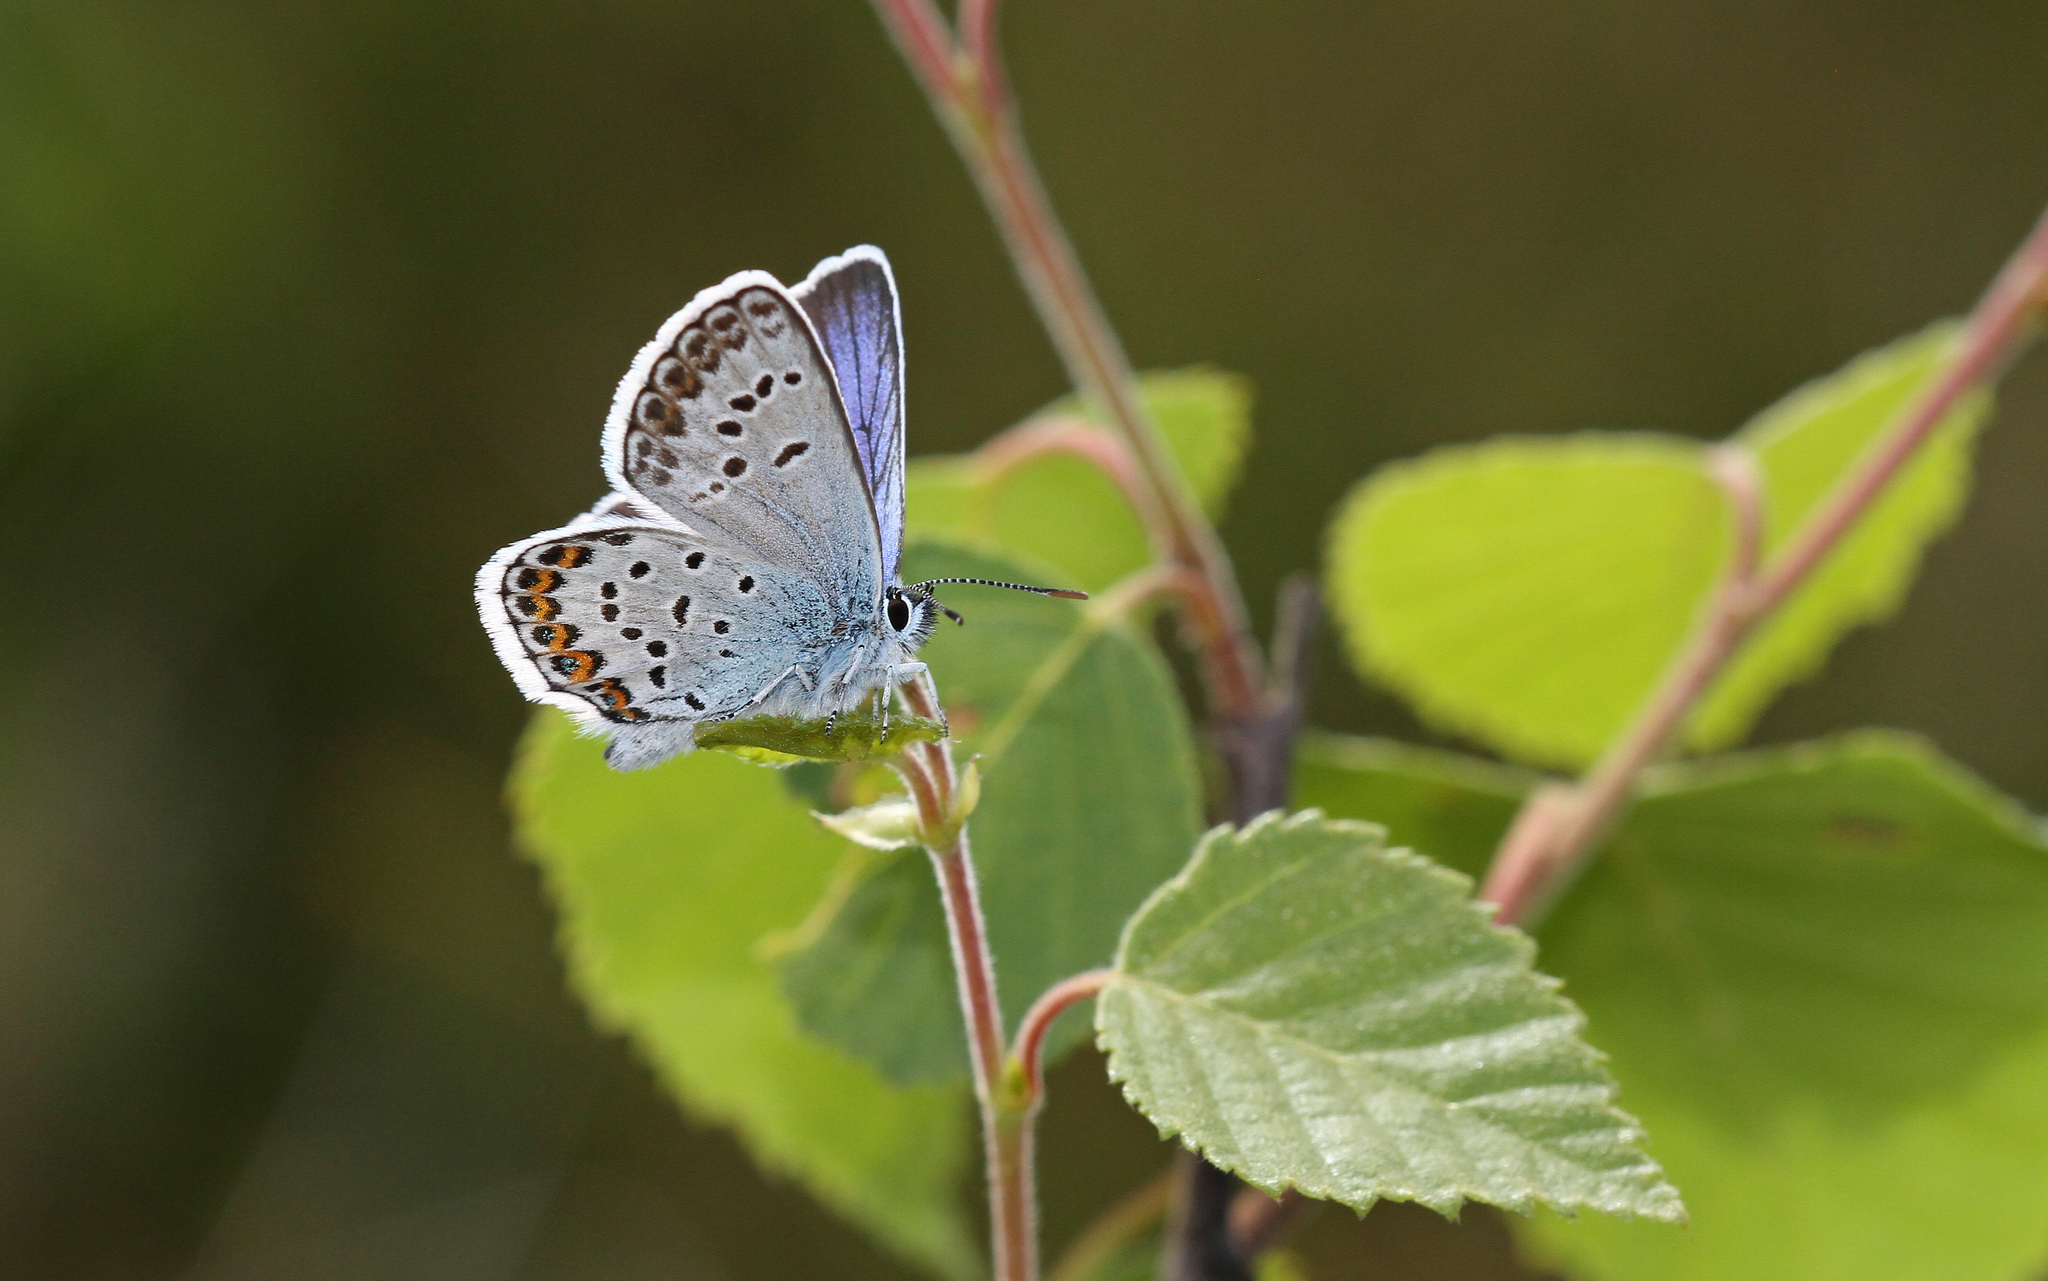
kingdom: Animalia
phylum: Arthropoda
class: Insecta
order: Lepidoptera
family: Lycaenidae
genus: Plebejus
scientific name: Plebejus argus
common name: Silver-studded blue
